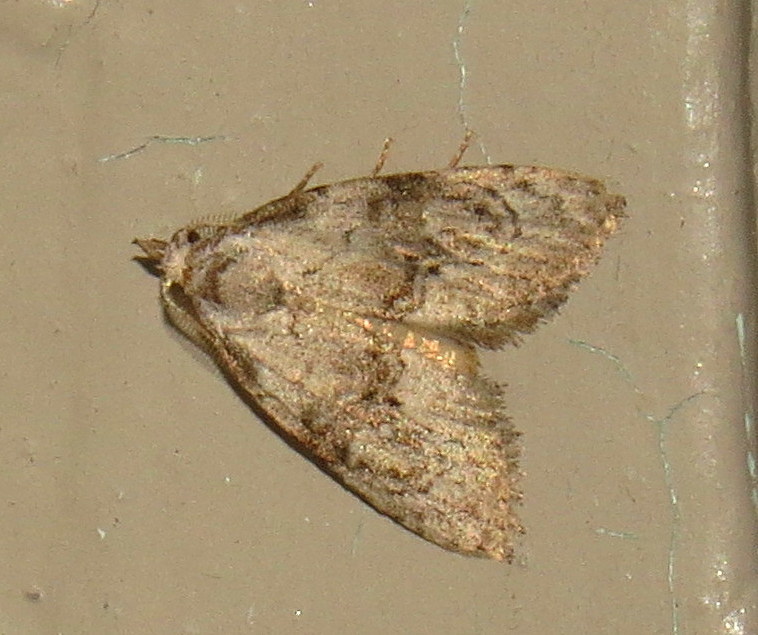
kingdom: Animalia
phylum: Arthropoda
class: Insecta
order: Lepidoptera
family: Nolidae
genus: Meganola
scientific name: Meganola spodia
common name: Ashy meganola moth
